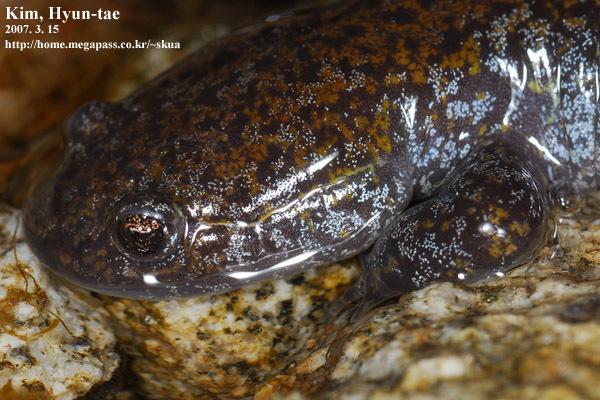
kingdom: Animalia
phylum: Chordata
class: Amphibia
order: Caudata
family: Hynobiidae
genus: Hynobius
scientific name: Hynobius leechii
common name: Gensan salamander
